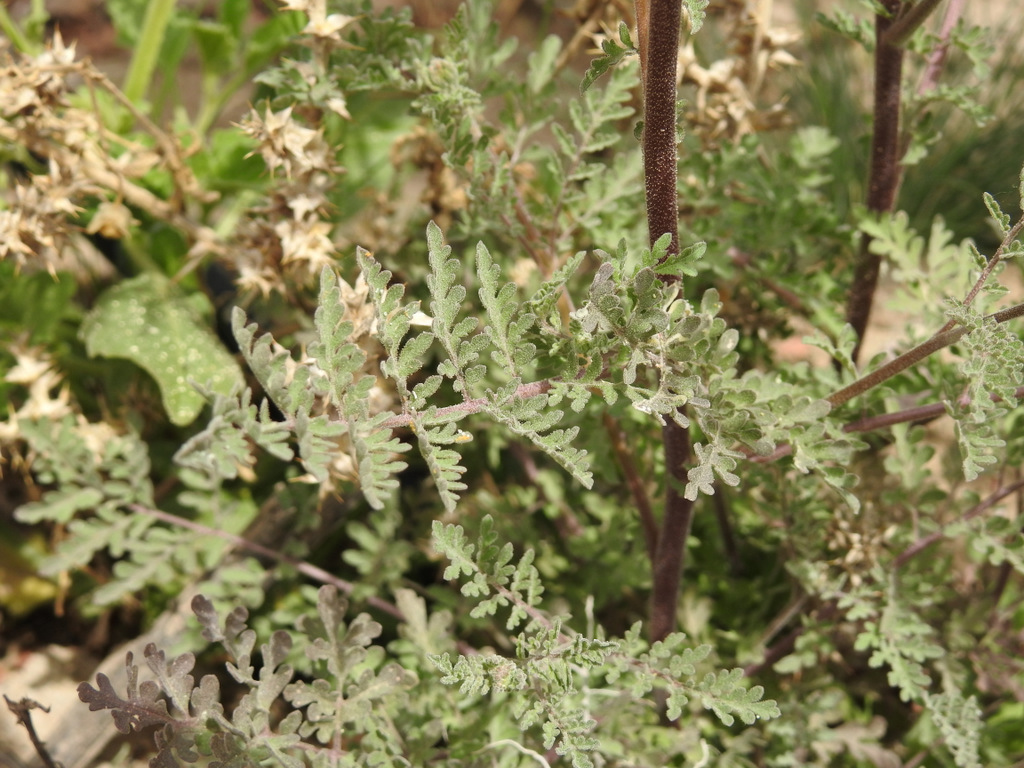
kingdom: Plantae
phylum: Tracheophyta
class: Magnoliopsida
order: Brassicales
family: Brassicaceae
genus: Descurainia
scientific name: Descurainia erodiifolia
